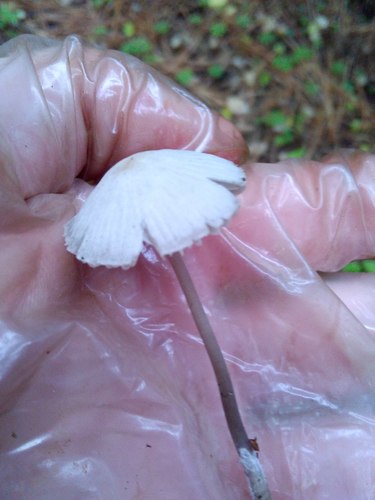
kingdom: Fungi
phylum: Basidiomycota
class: Agaricomycetes
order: Agaricales
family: Mycenaceae
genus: Mycena
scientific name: Mycena
